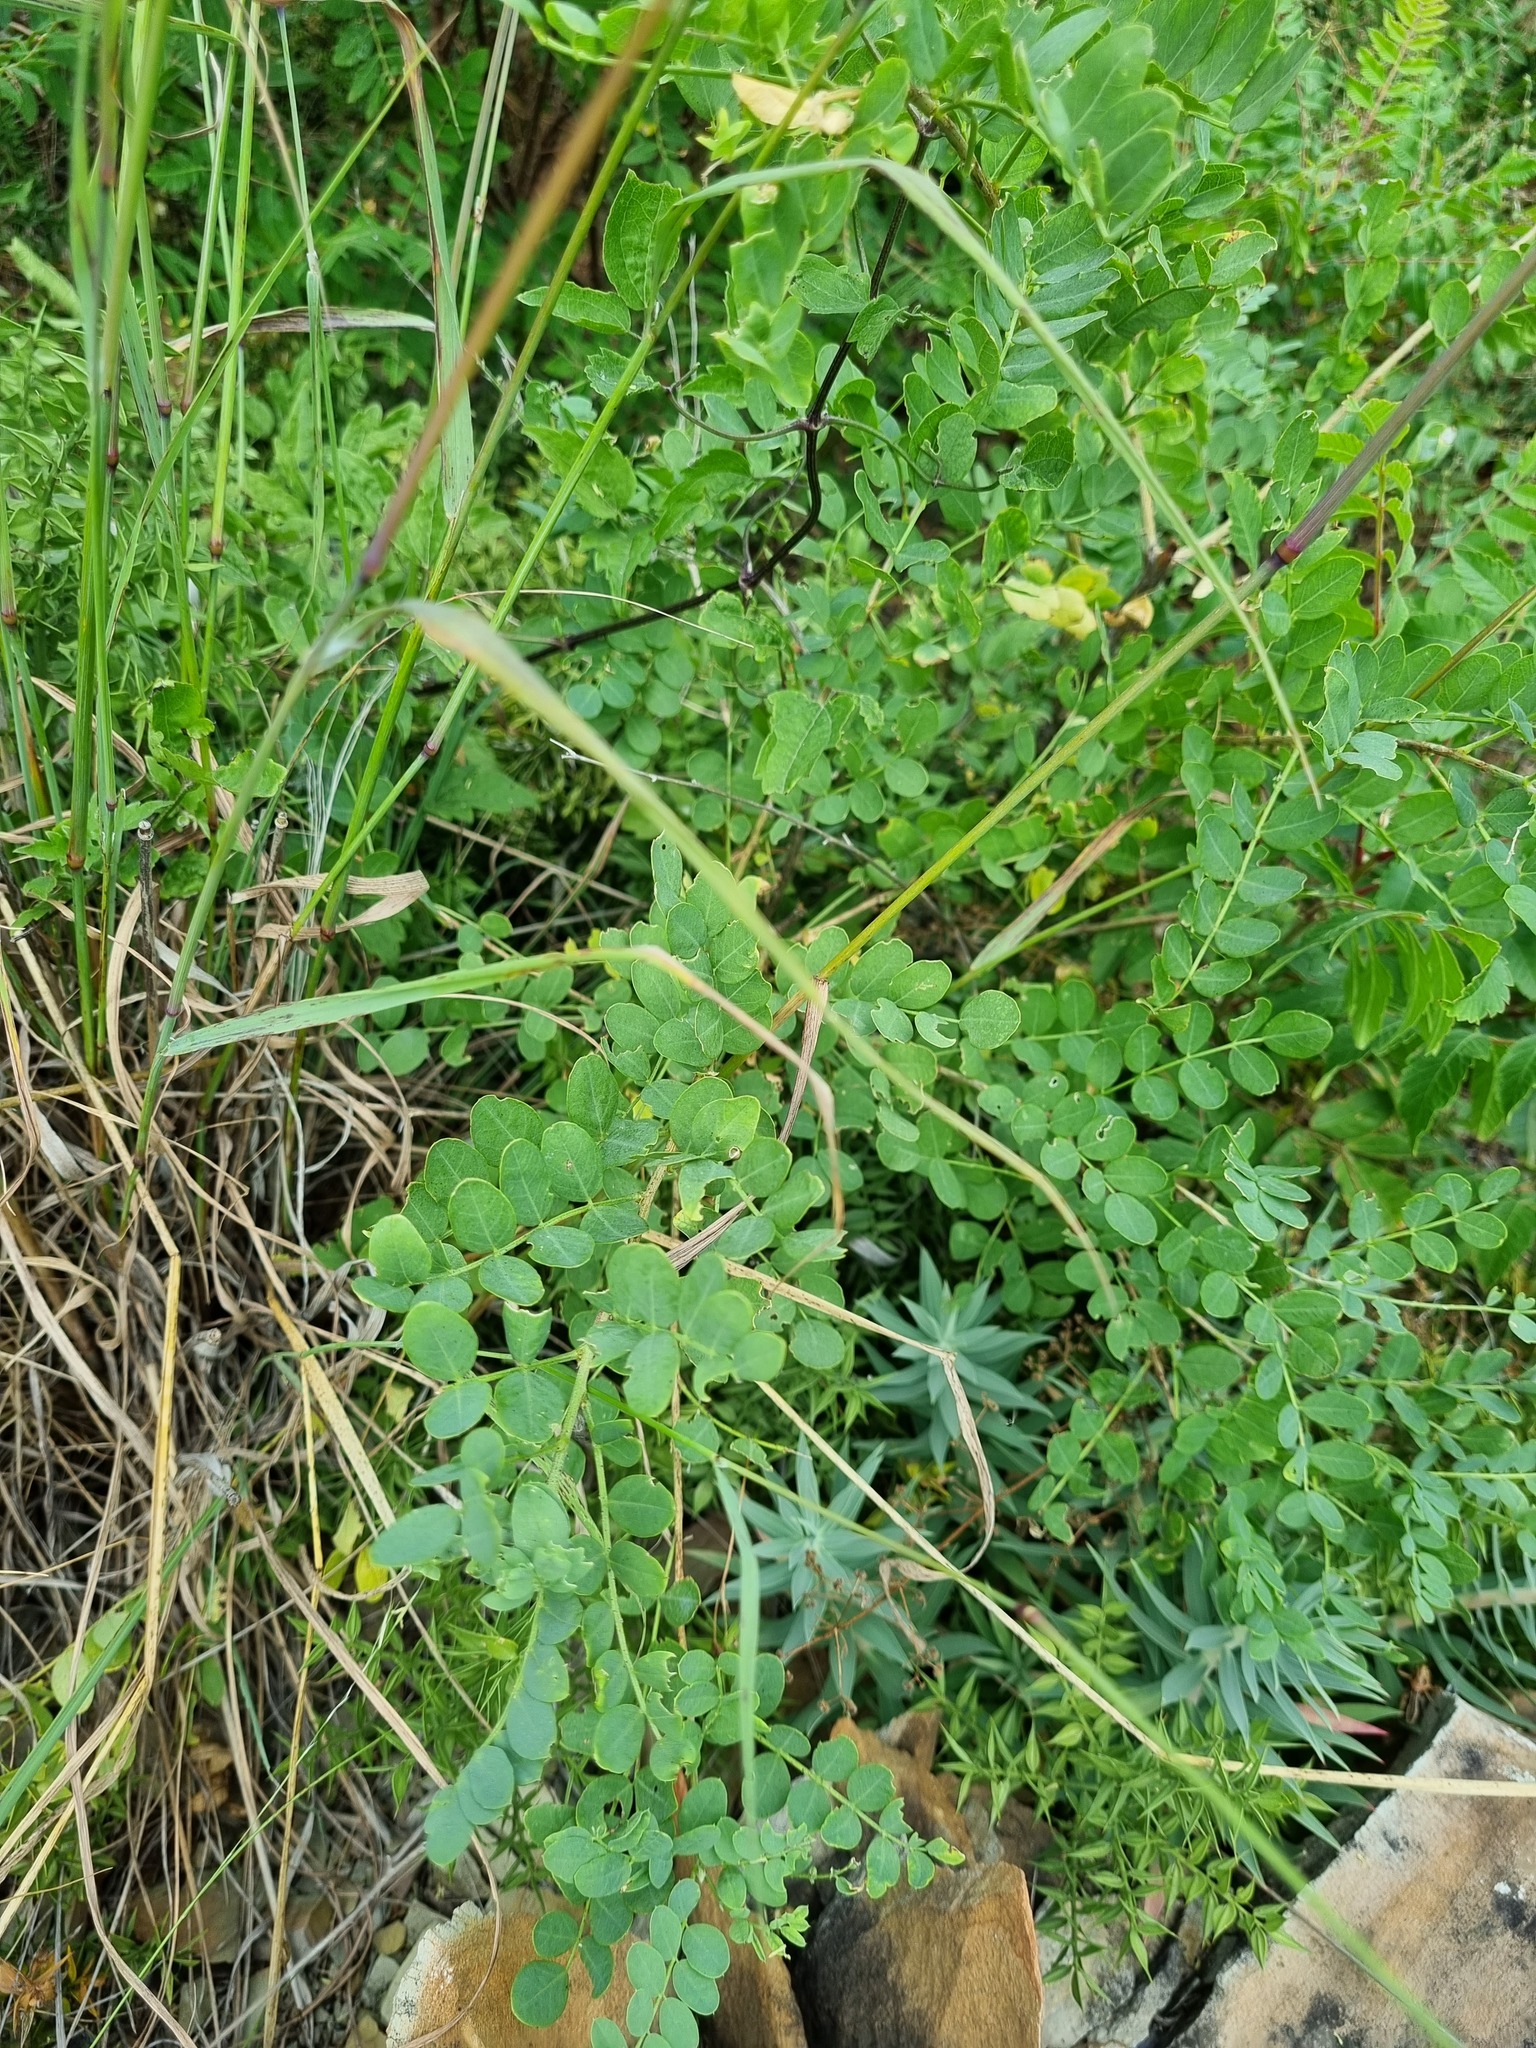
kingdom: Plantae
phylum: Tracheophyta
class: Magnoliopsida
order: Fabales
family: Fabaceae
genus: Coronilla
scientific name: Coronilla coronata
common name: Scorpion-vetch
